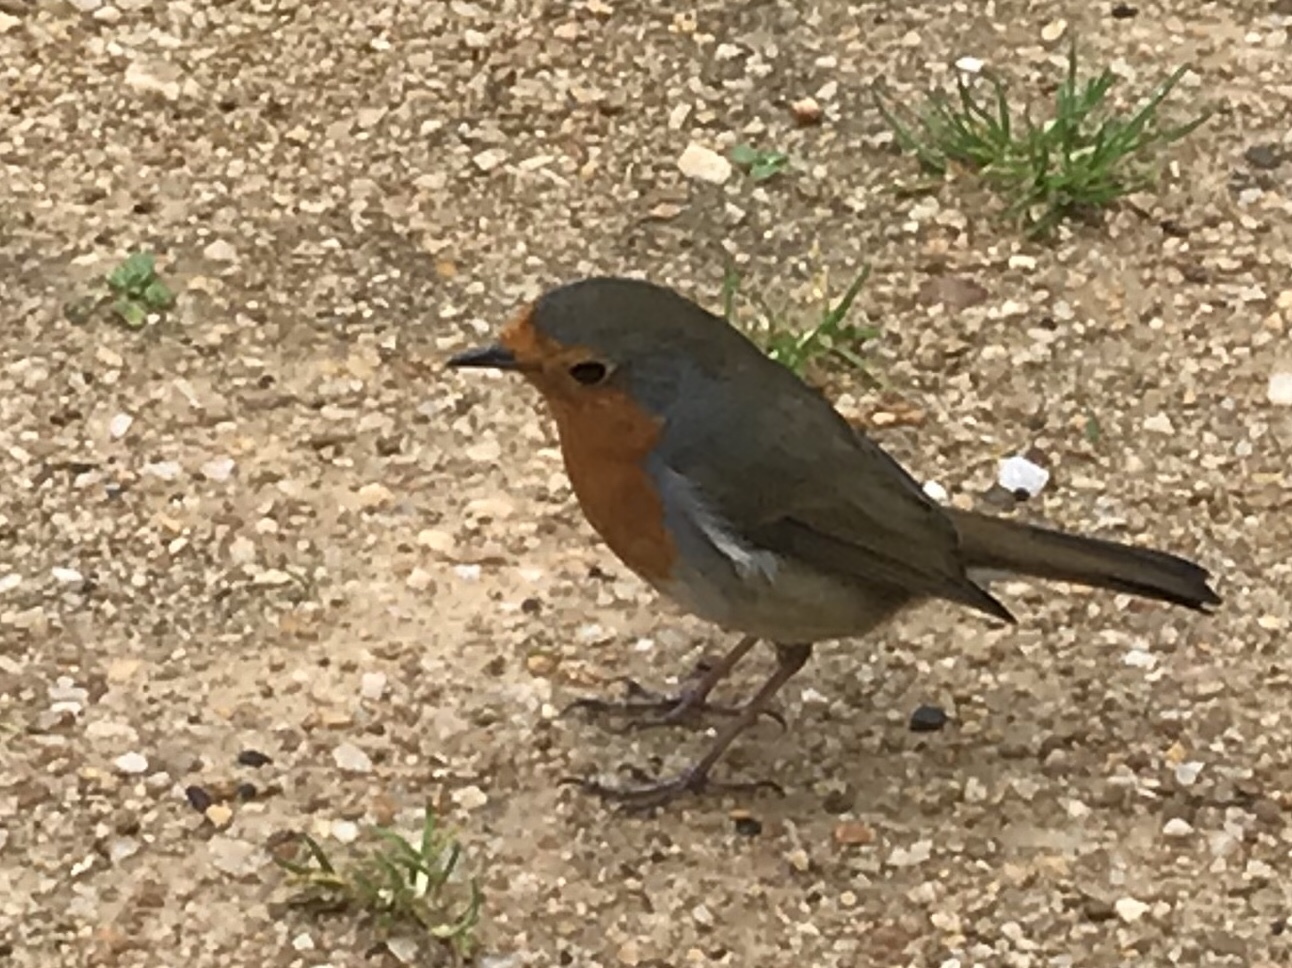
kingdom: Animalia
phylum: Chordata
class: Aves
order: Passeriformes
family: Muscicapidae
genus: Erithacus
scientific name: Erithacus rubecula
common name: European robin
